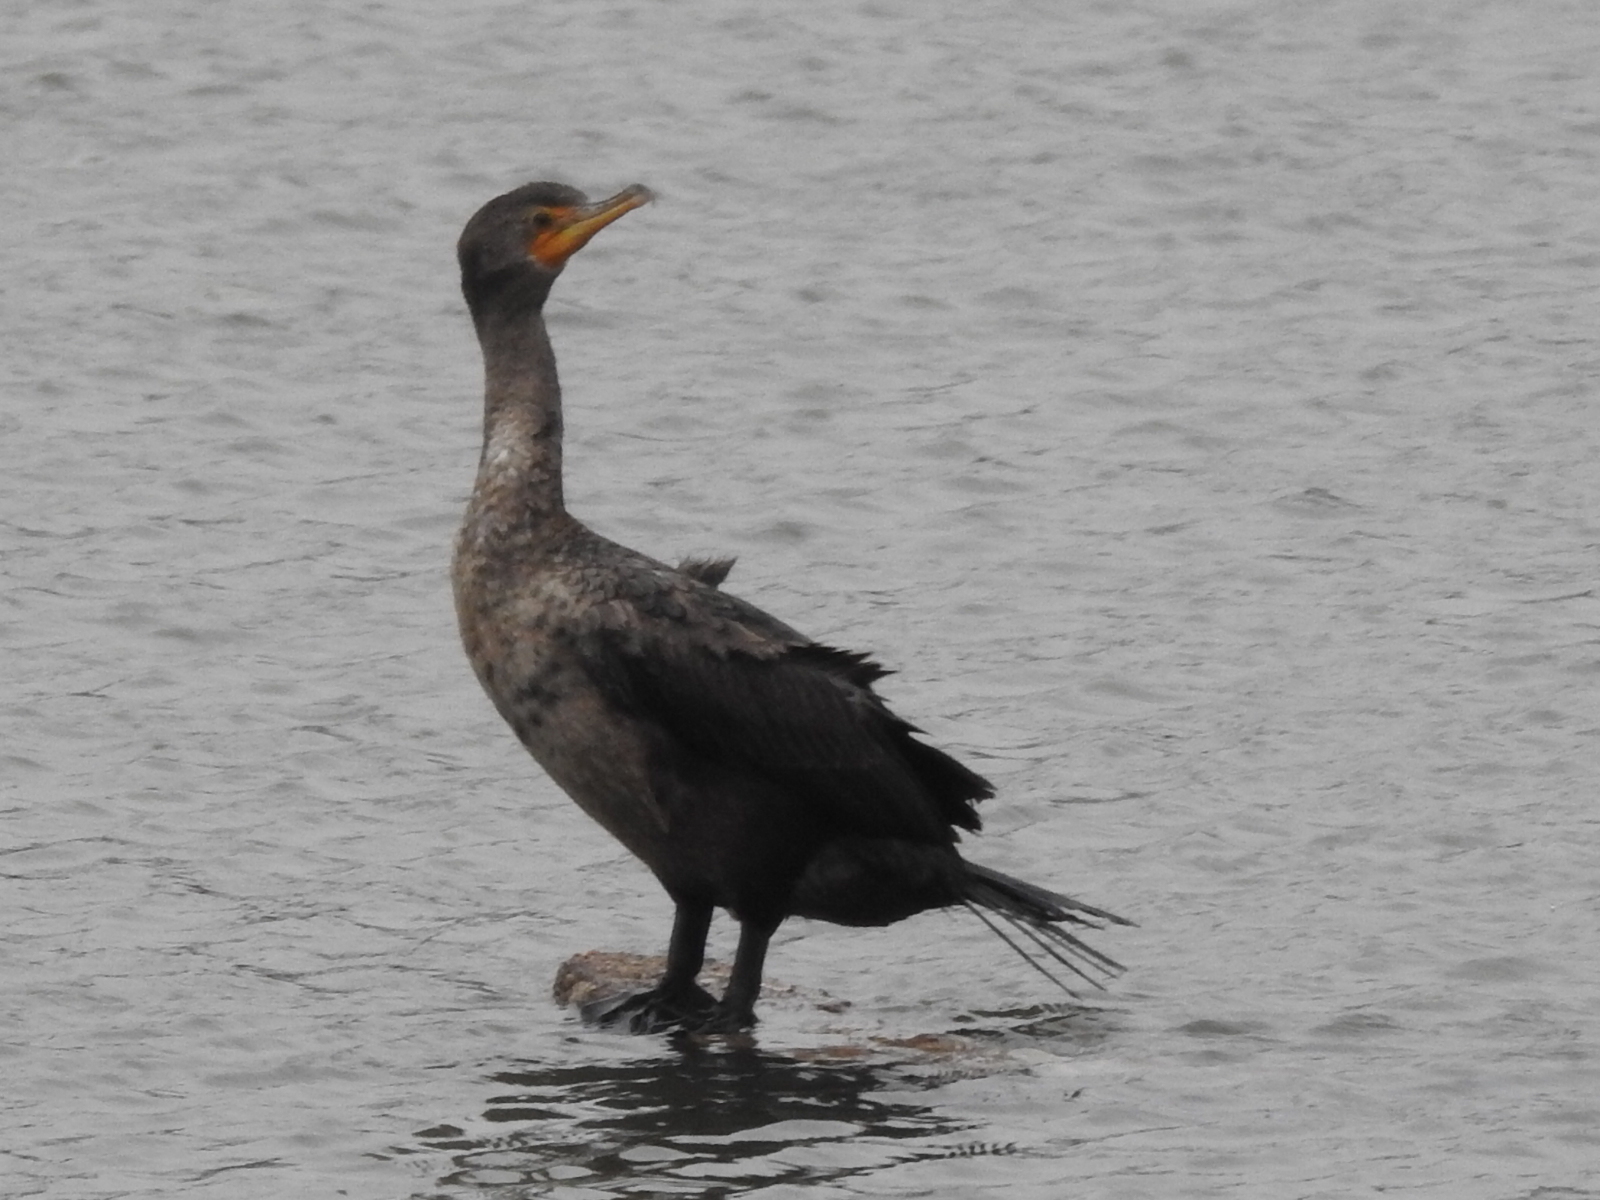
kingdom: Animalia
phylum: Chordata
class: Aves
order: Suliformes
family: Phalacrocoracidae
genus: Phalacrocorax
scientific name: Phalacrocorax auritus
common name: Double-crested cormorant
